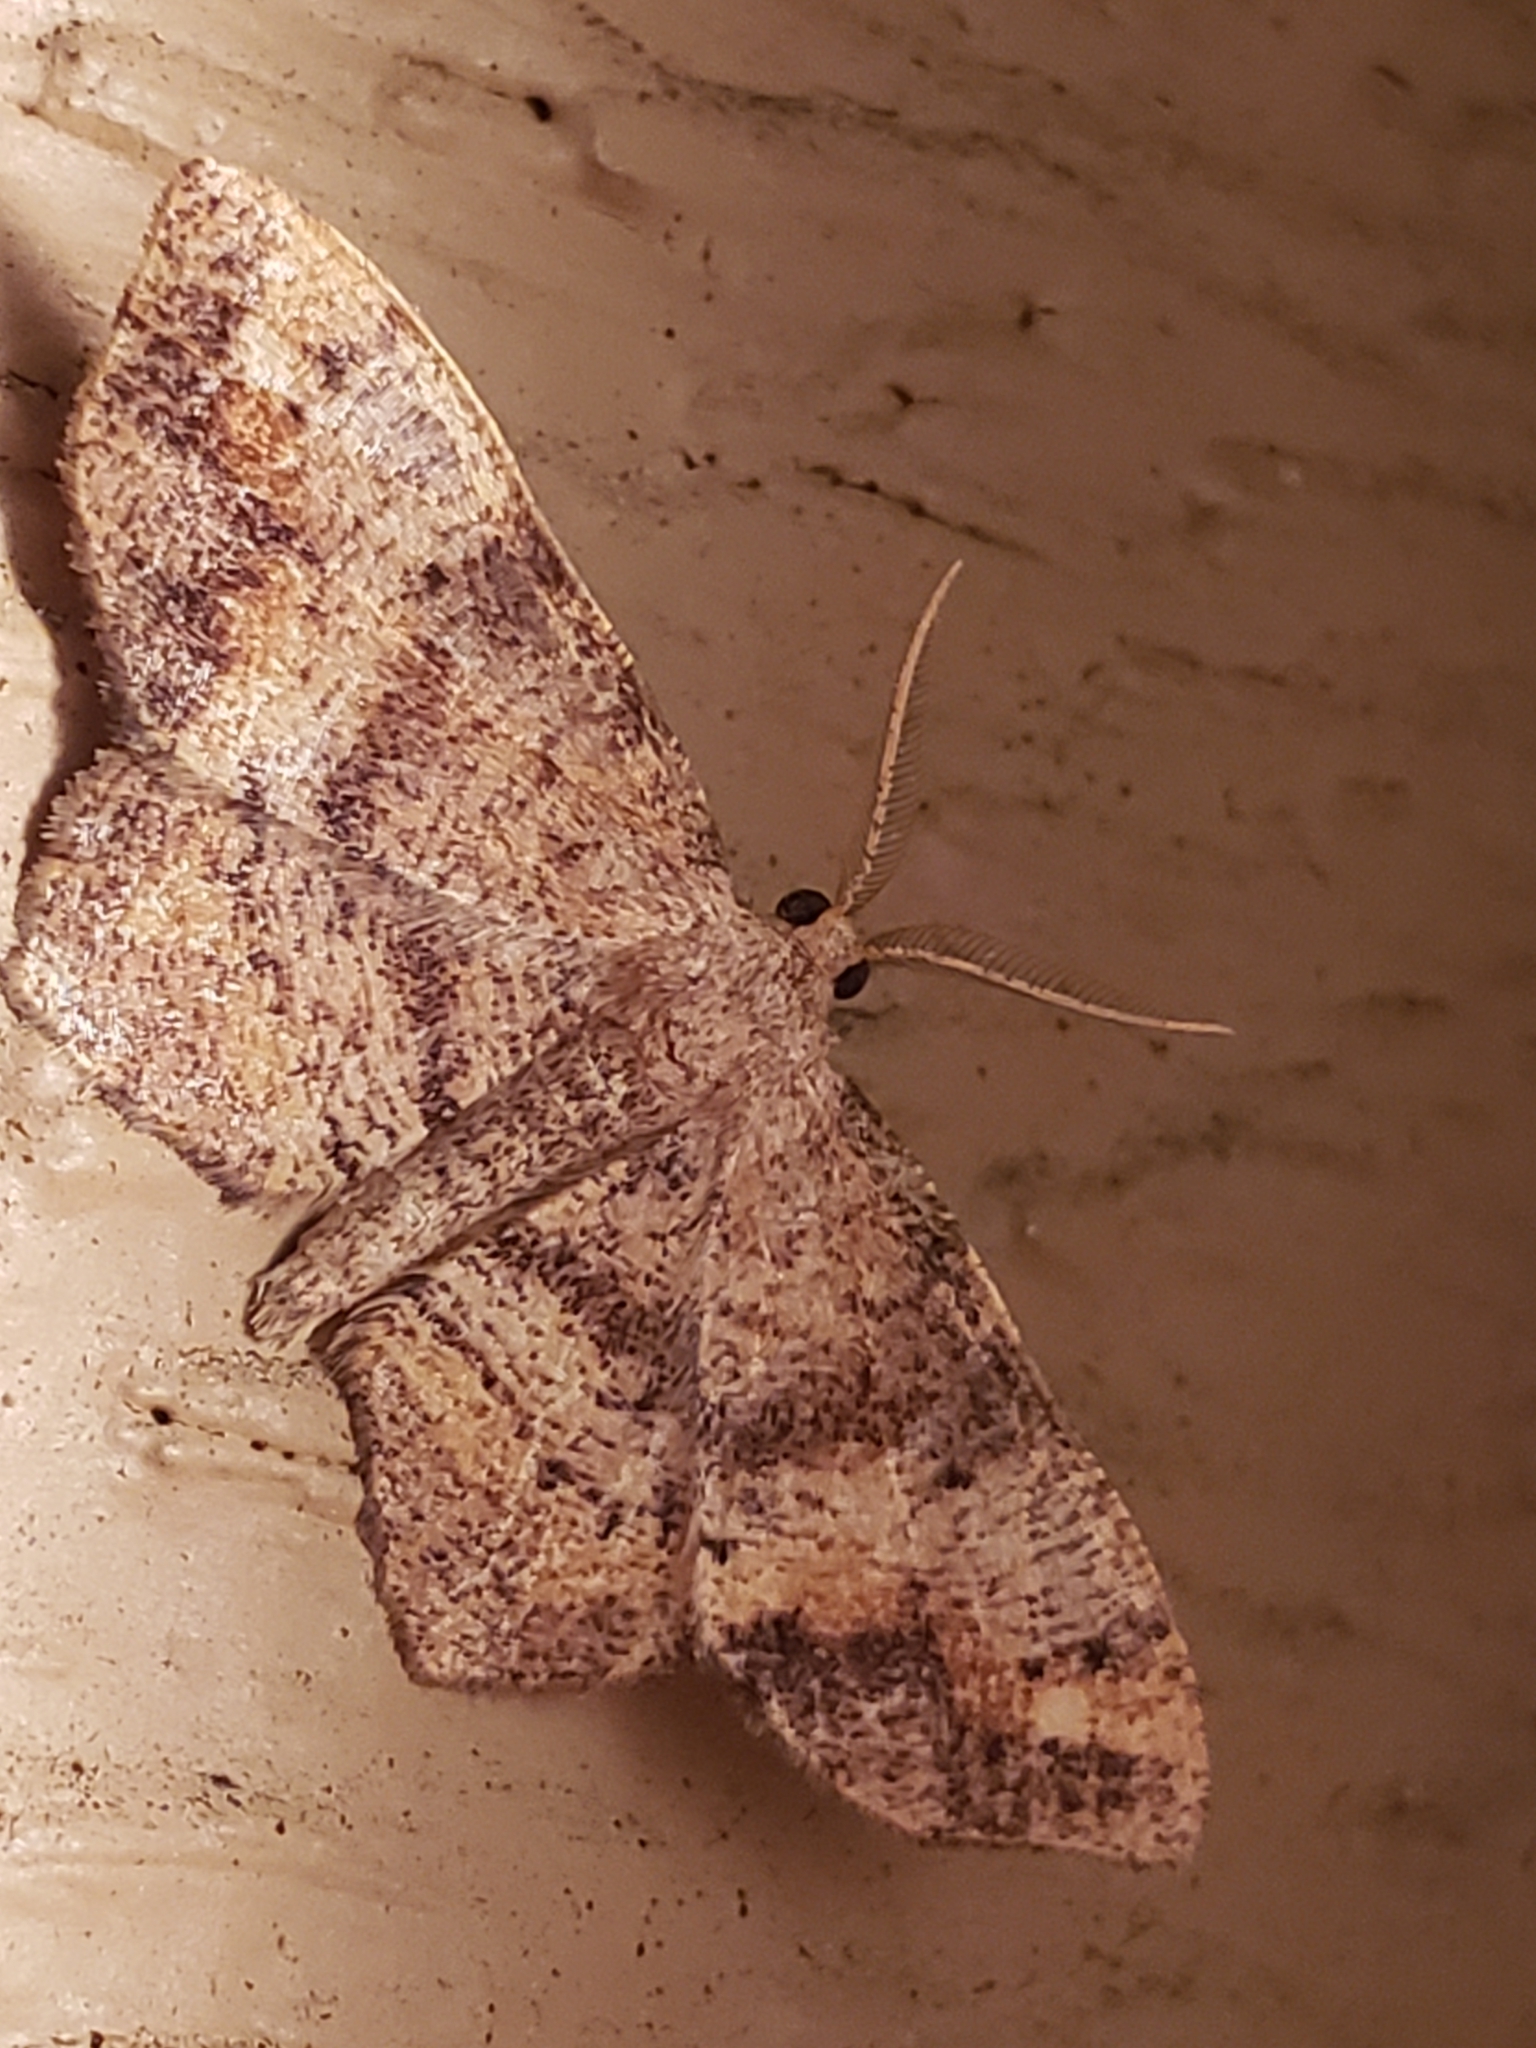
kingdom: Animalia
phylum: Arthropoda
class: Insecta
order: Lepidoptera
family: Geometridae
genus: Hypagyrtis
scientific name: Hypagyrtis unipunctata
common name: One-spotted variant
